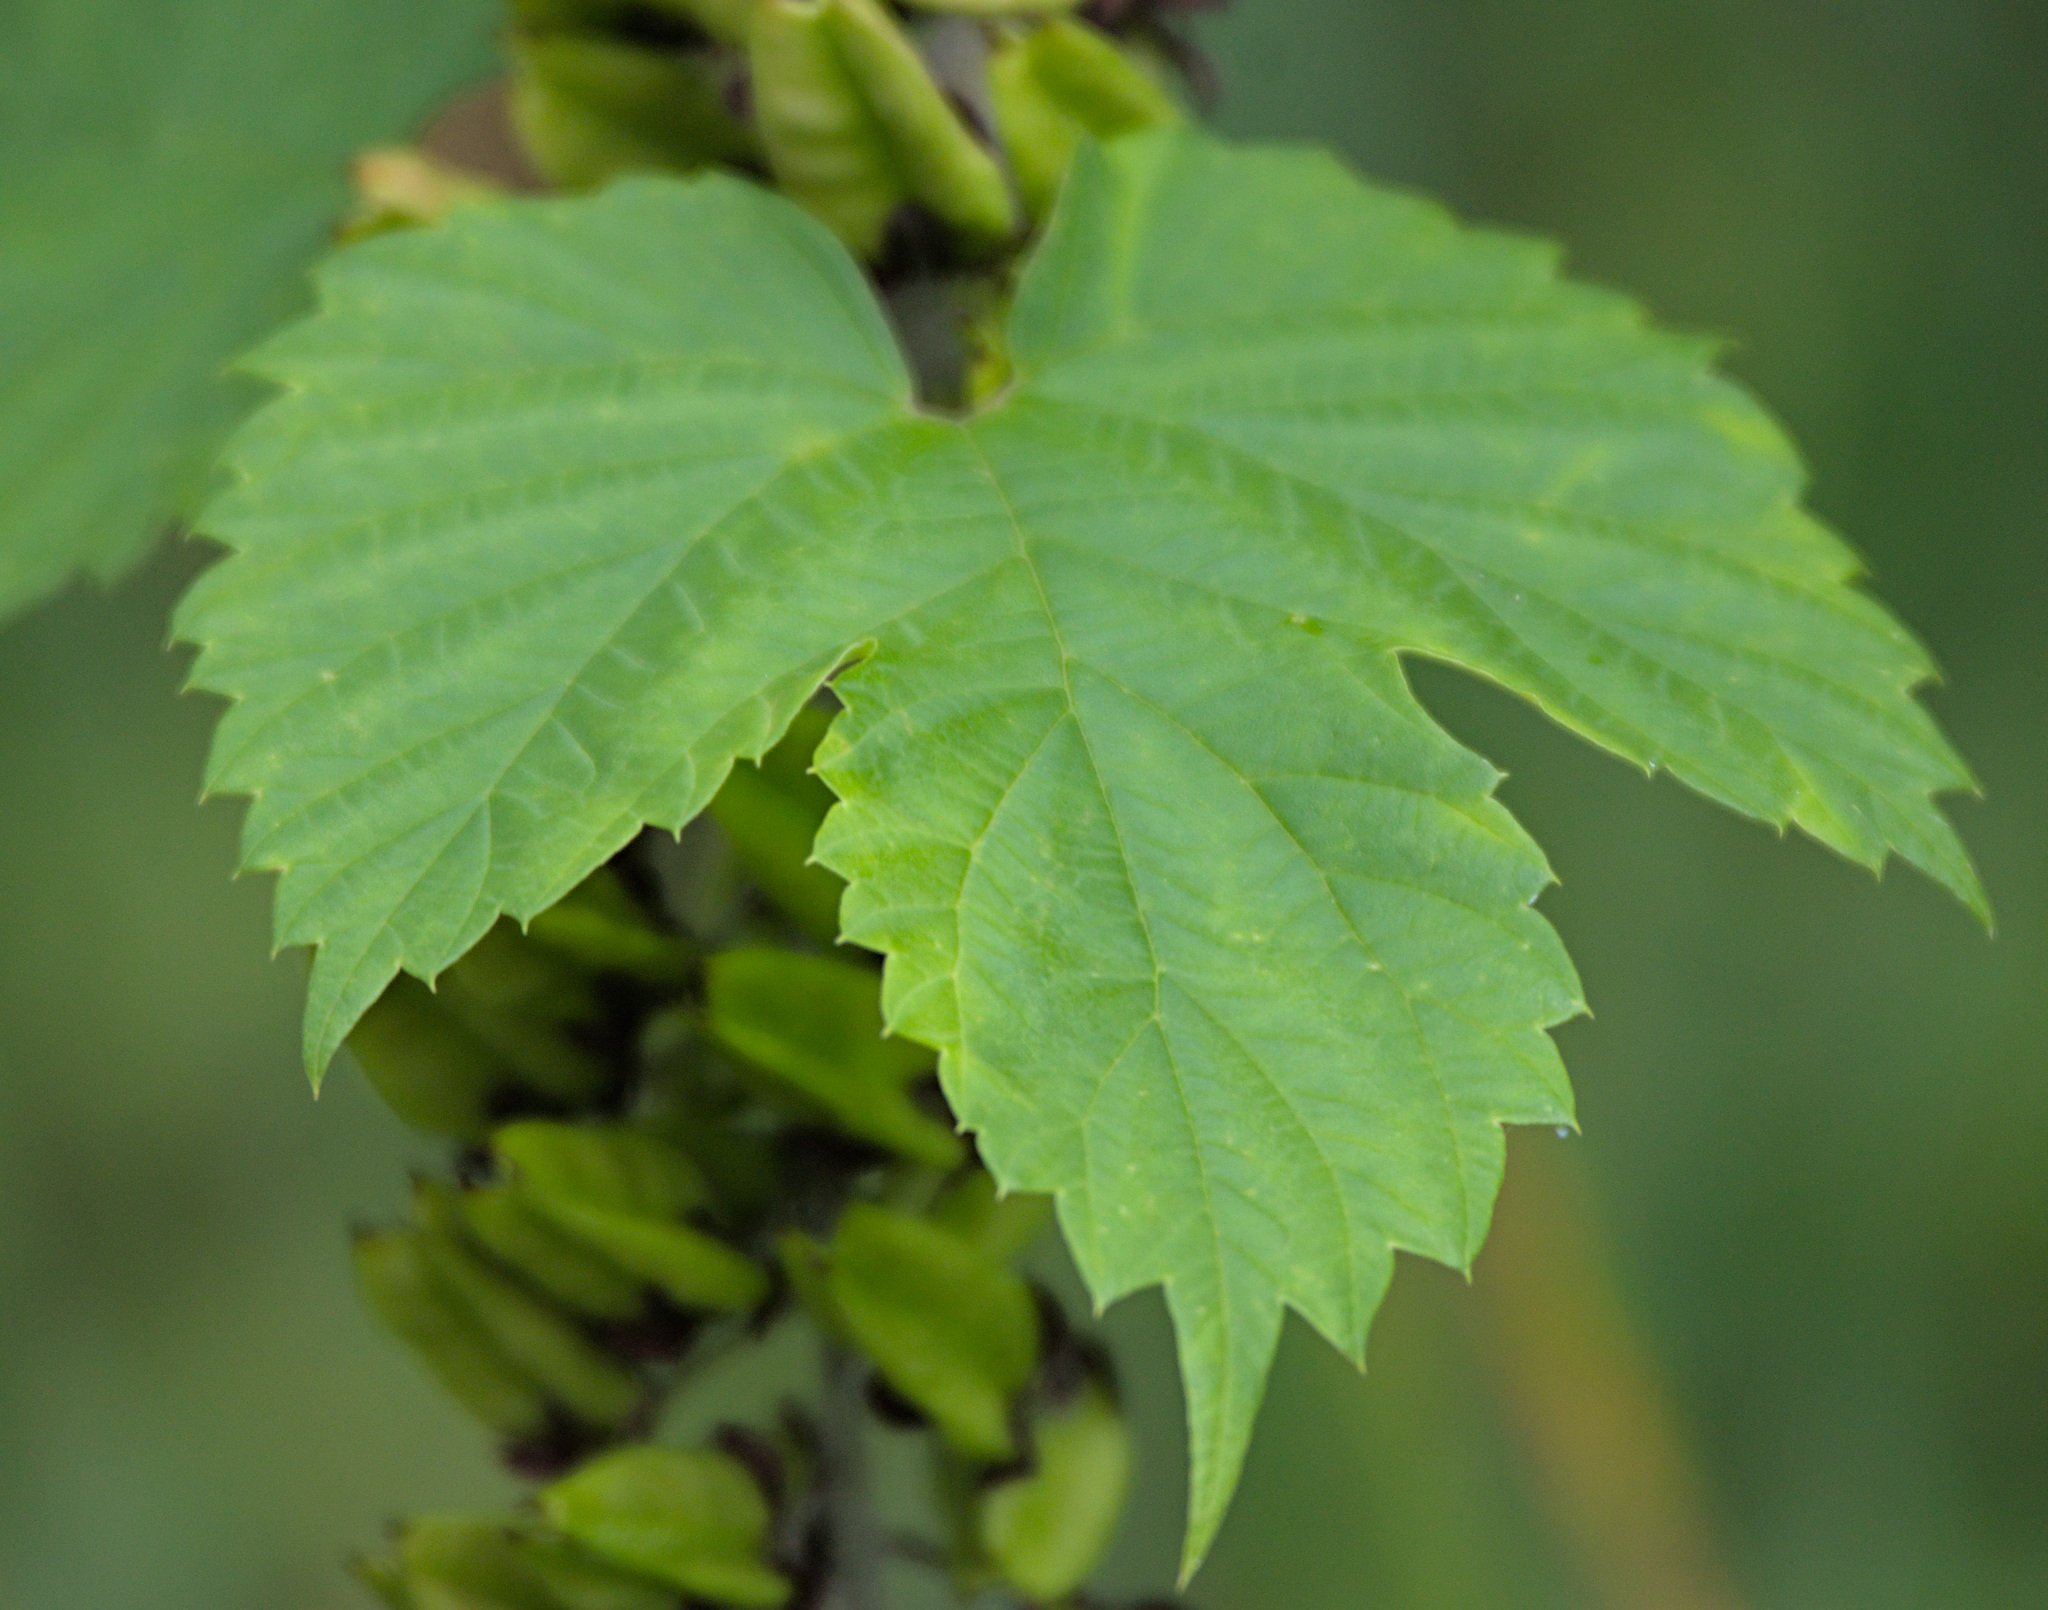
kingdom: Plantae
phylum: Tracheophyta
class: Magnoliopsida
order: Rosales
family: Cannabaceae
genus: Humulus
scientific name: Humulus lupulus
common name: Hop
